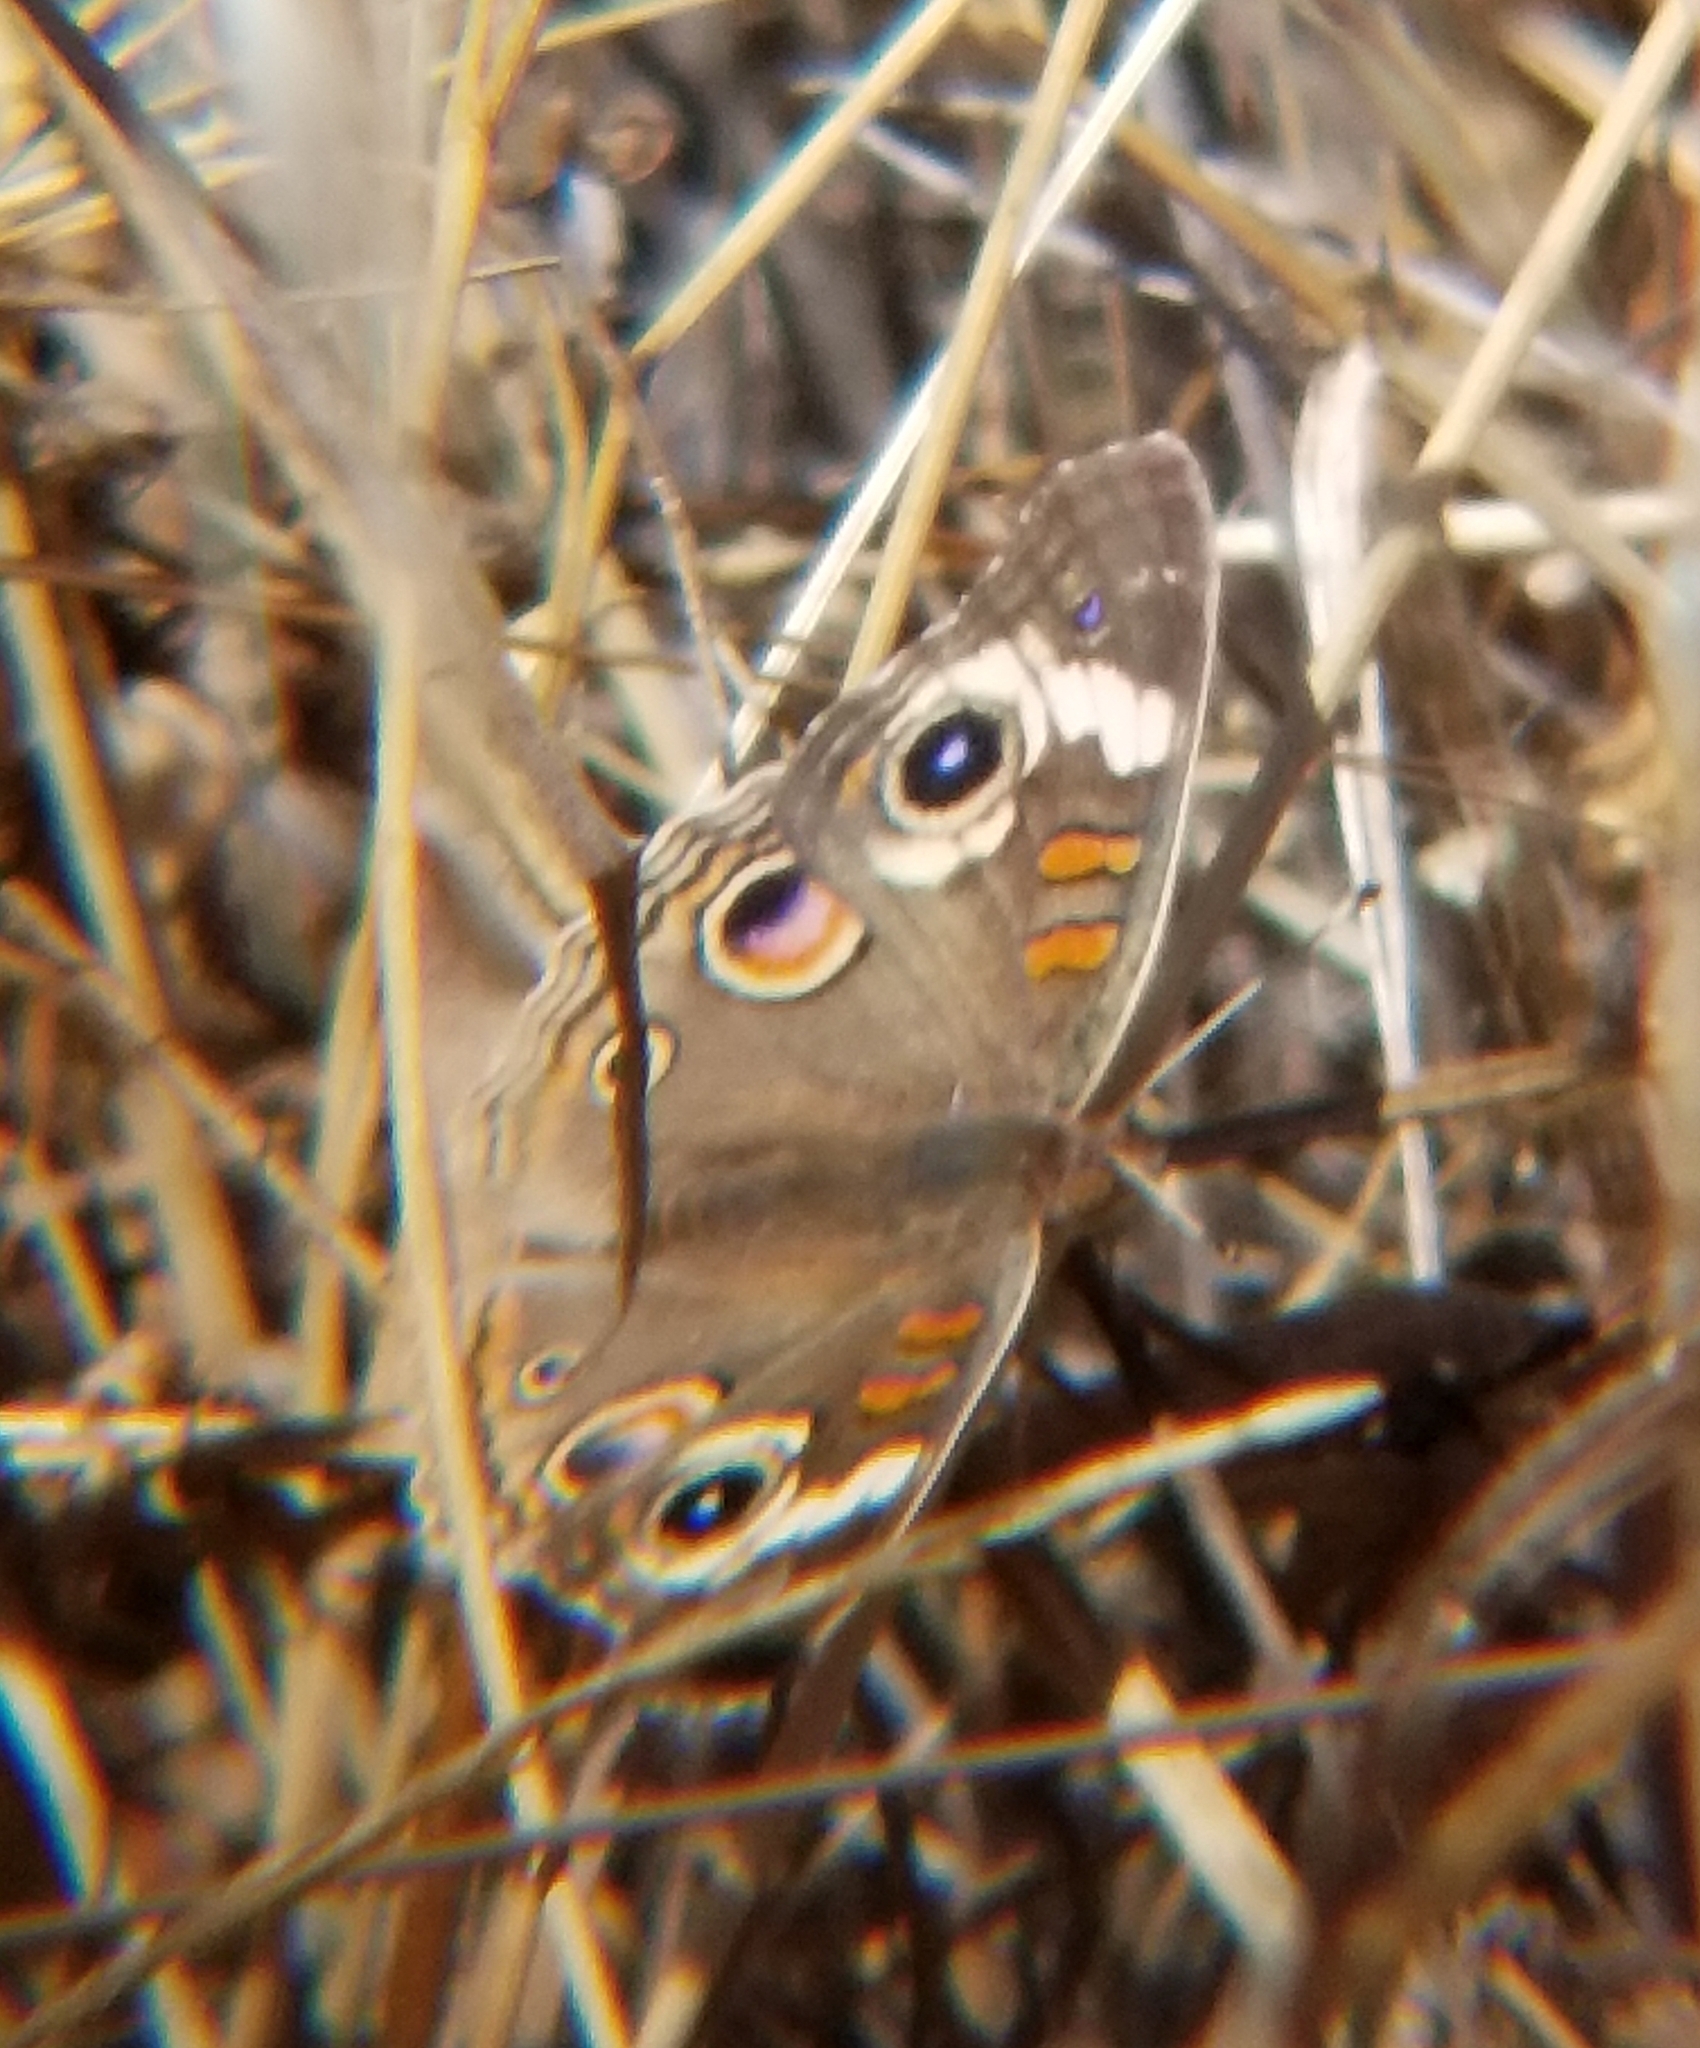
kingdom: Animalia
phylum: Arthropoda
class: Insecta
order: Lepidoptera
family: Nymphalidae
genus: Junonia
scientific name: Junonia grisea
